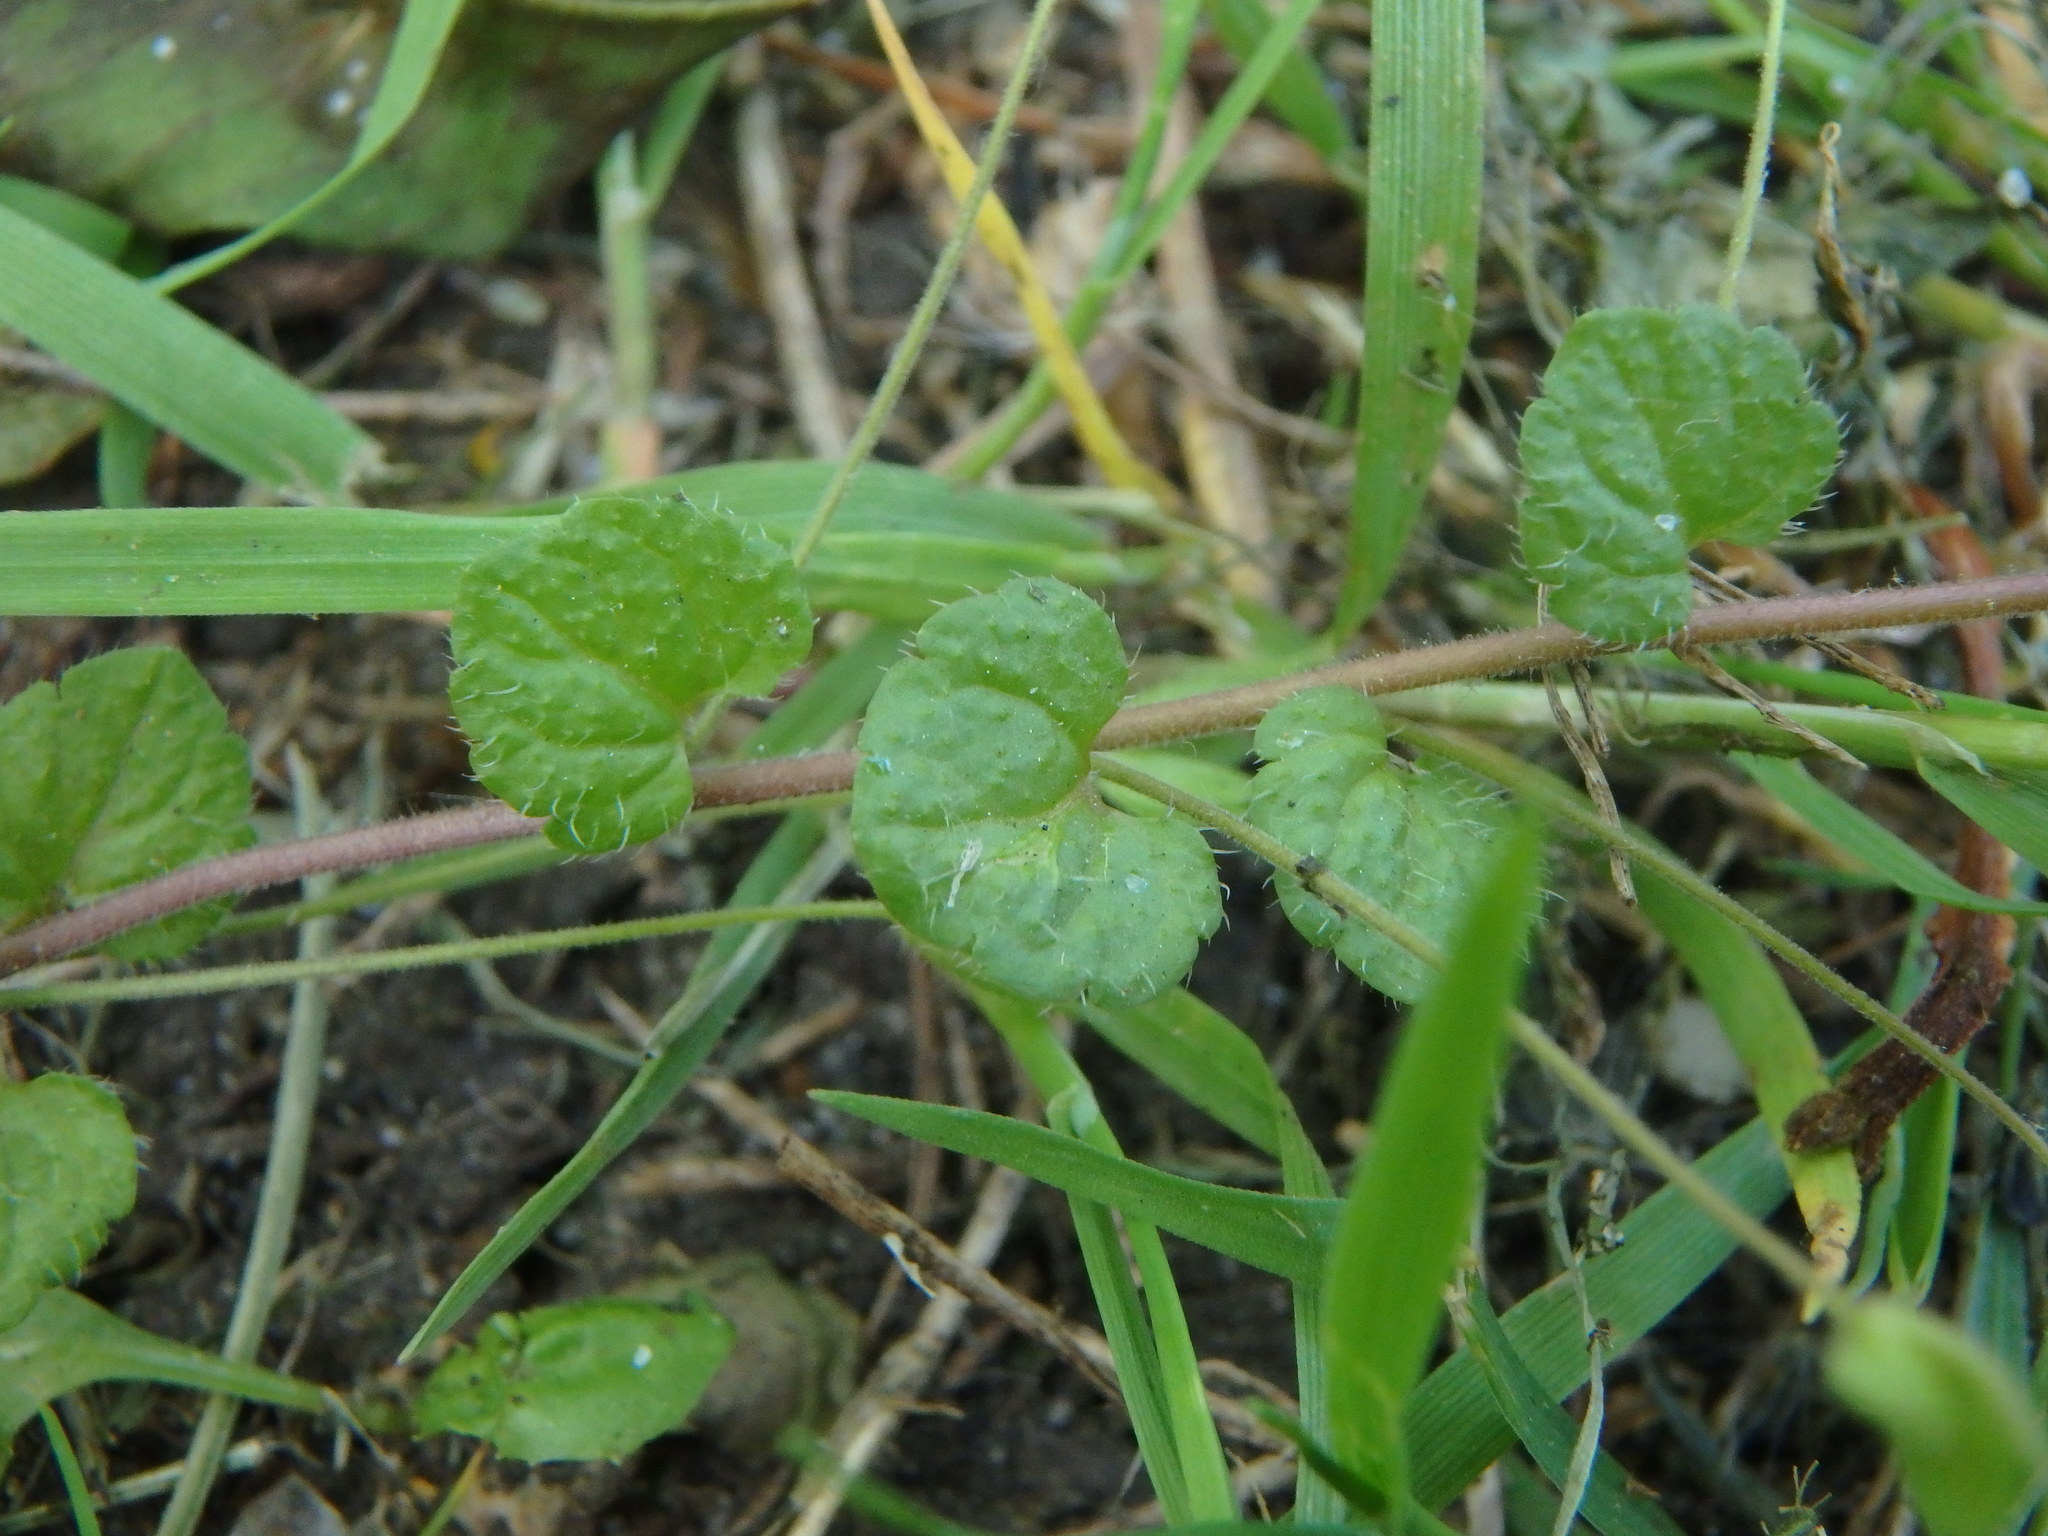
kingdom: Plantae
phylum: Tracheophyta
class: Magnoliopsida
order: Lamiales
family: Plantaginaceae
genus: Veronica
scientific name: Veronica filiformis
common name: Slender speedwell
